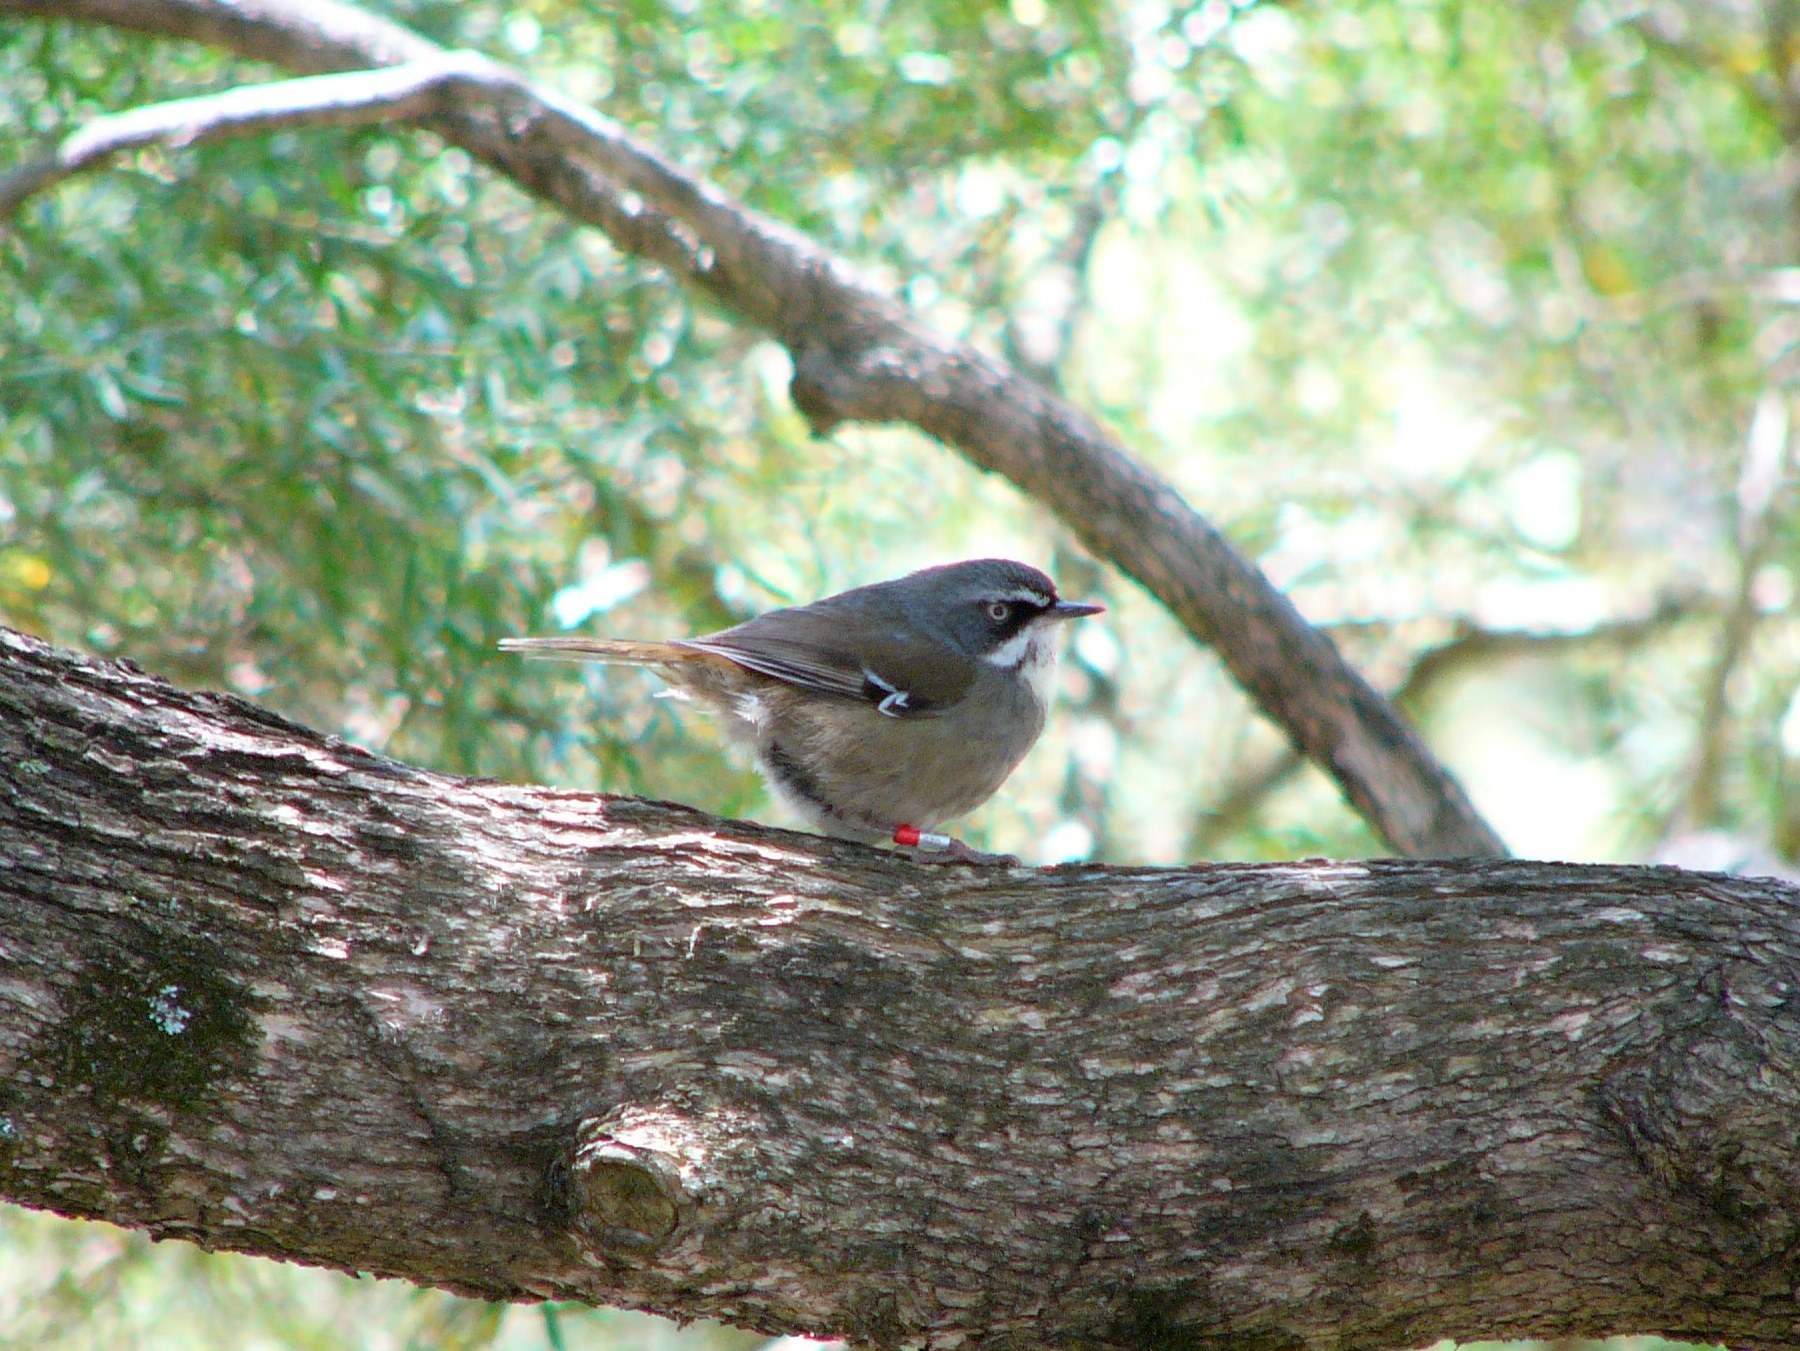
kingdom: Animalia
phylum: Chordata
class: Aves
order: Passeriformes
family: Acanthizidae
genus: Sericornis
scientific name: Sericornis frontalis
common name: White-browed scrubwren
